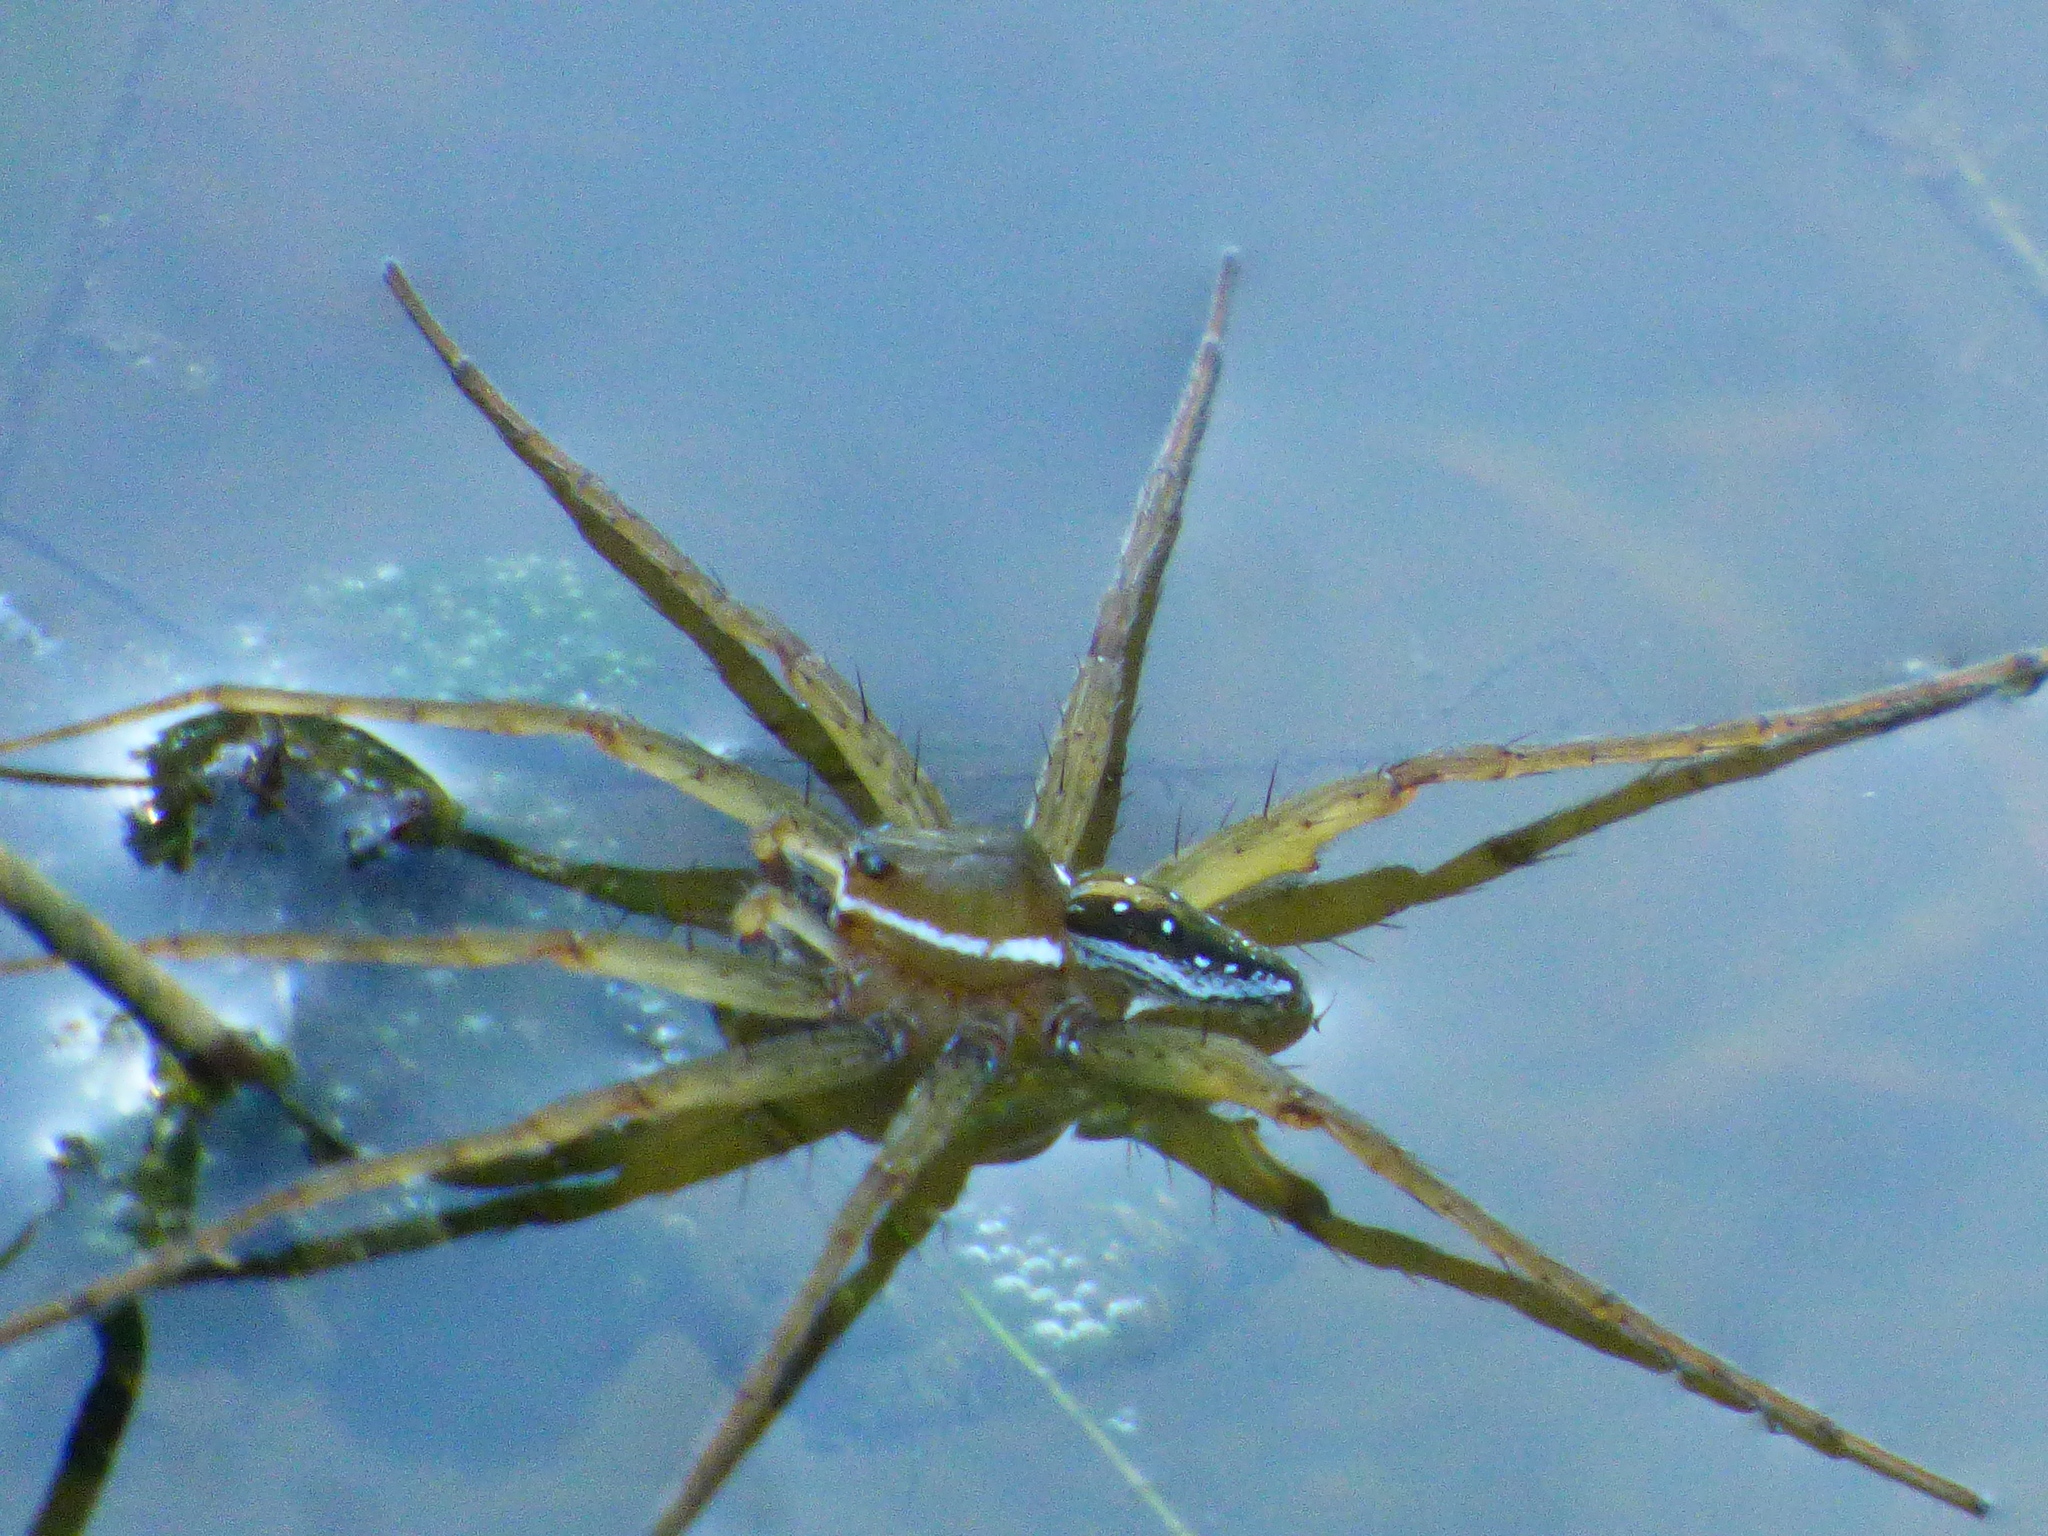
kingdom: Animalia
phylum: Arthropoda
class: Arachnida
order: Araneae
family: Pisauridae
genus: Dolomedes
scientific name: Dolomedes triton
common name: Six-spotted fishing spider
